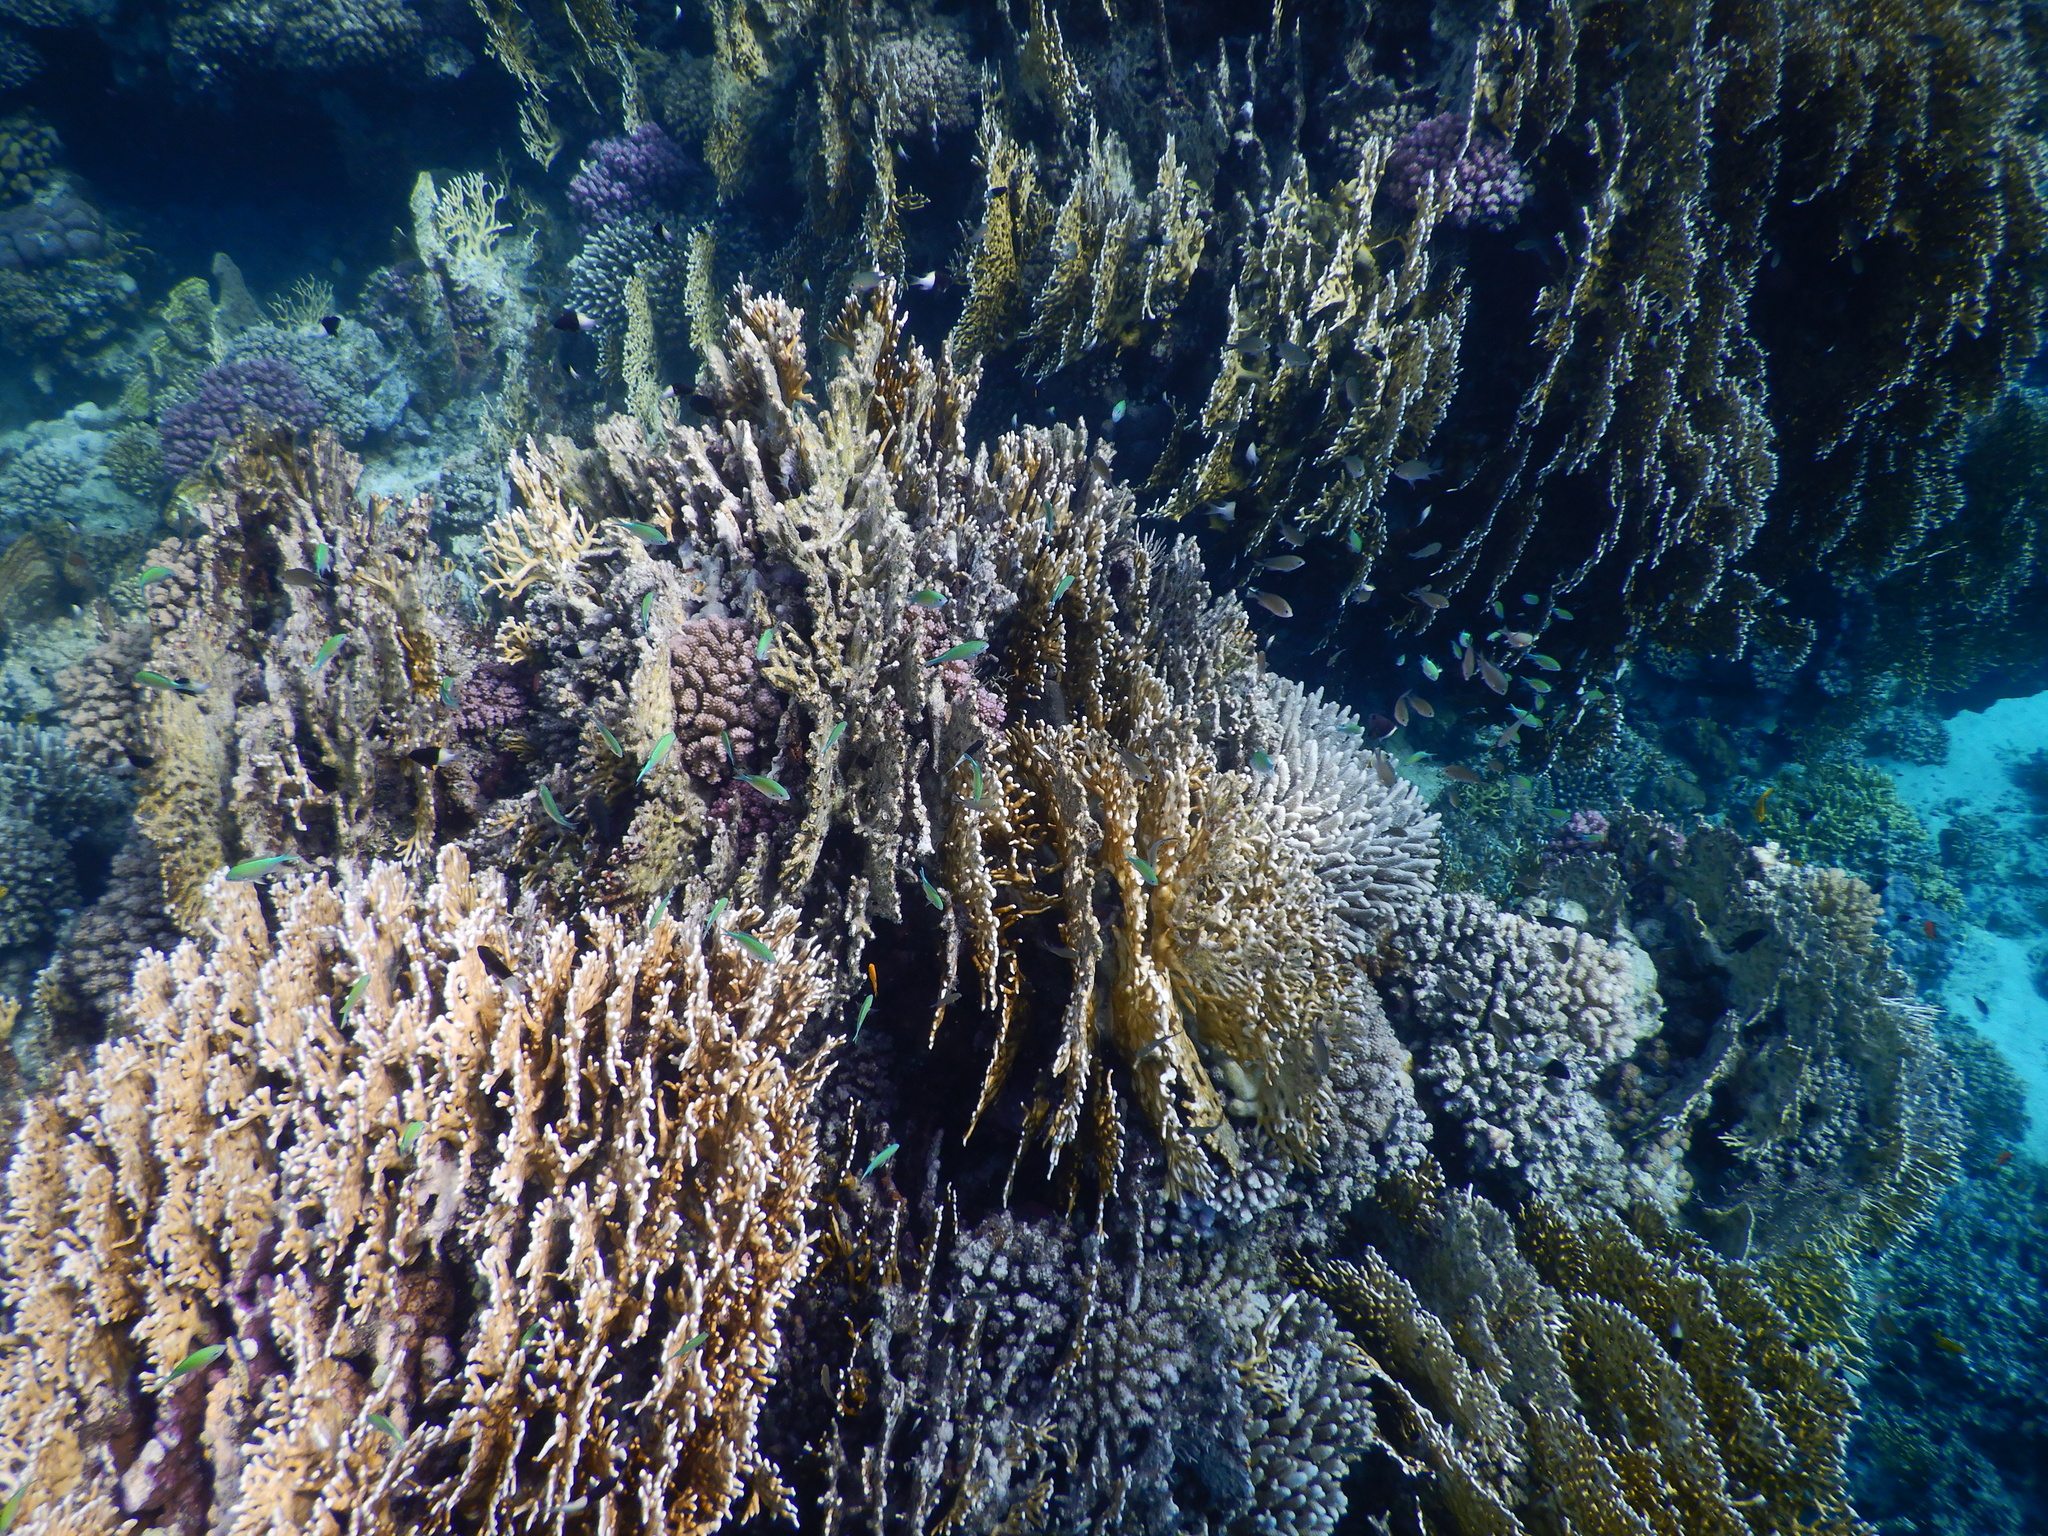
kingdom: Animalia
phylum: Cnidaria
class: Hydrozoa
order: Anthoathecata
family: Milleporidae
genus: Millepora
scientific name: Millepora dichotoma
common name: Ramified fire coral
